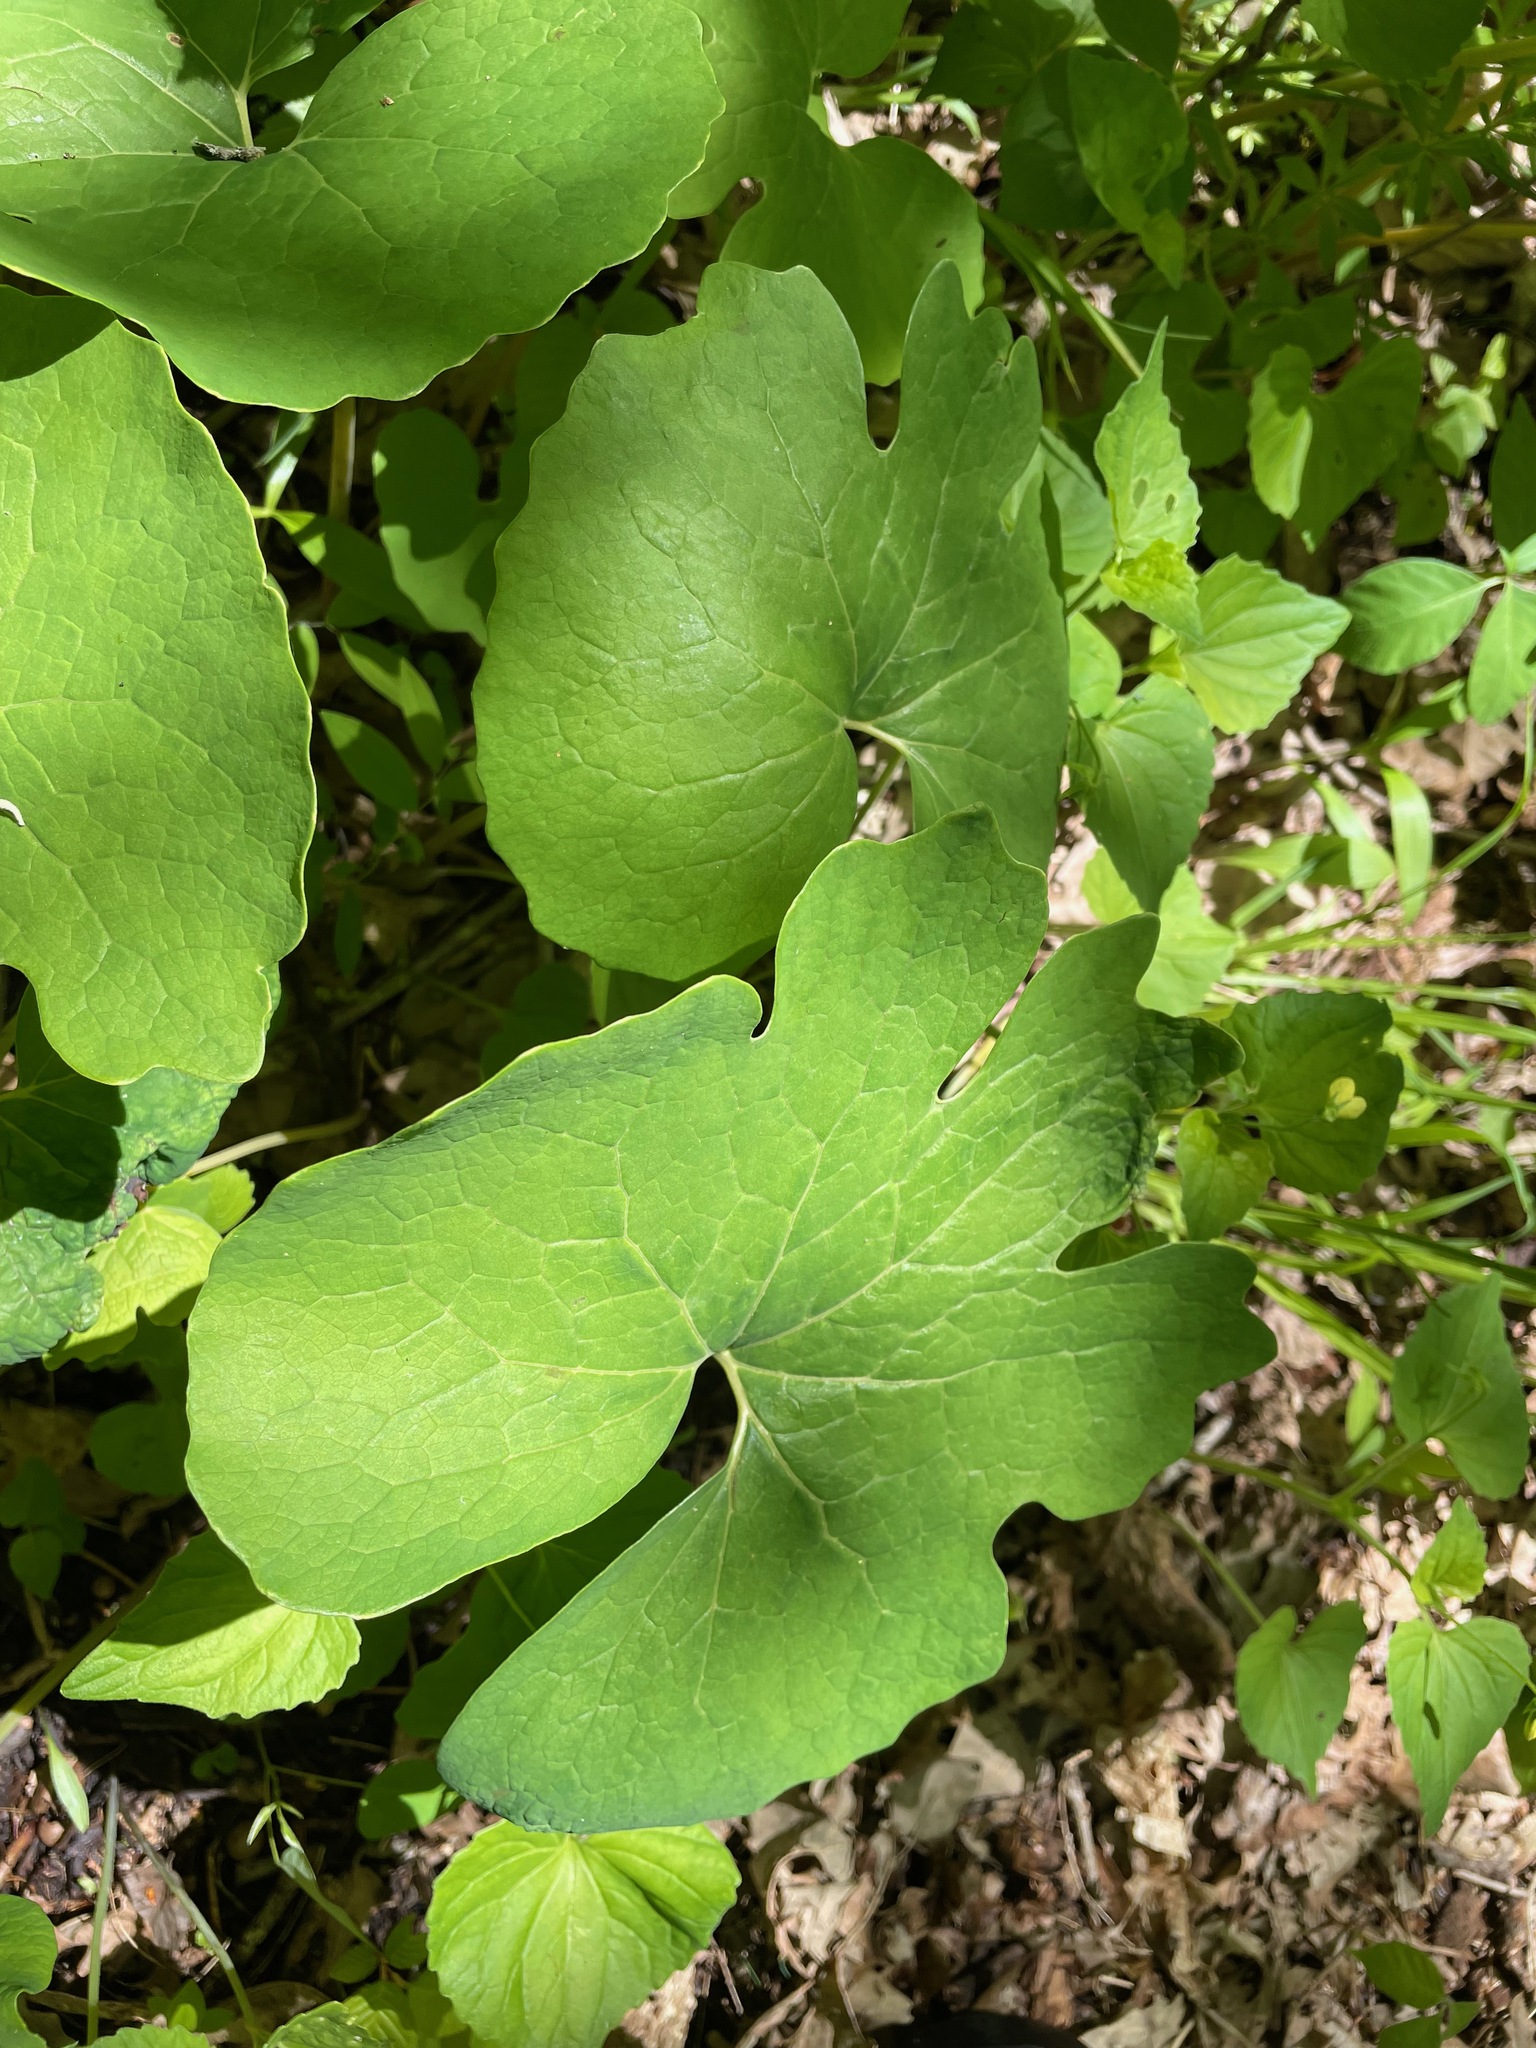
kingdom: Plantae
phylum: Tracheophyta
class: Magnoliopsida
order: Ranunculales
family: Papaveraceae
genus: Sanguinaria
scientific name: Sanguinaria canadensis
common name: Bloodroot
